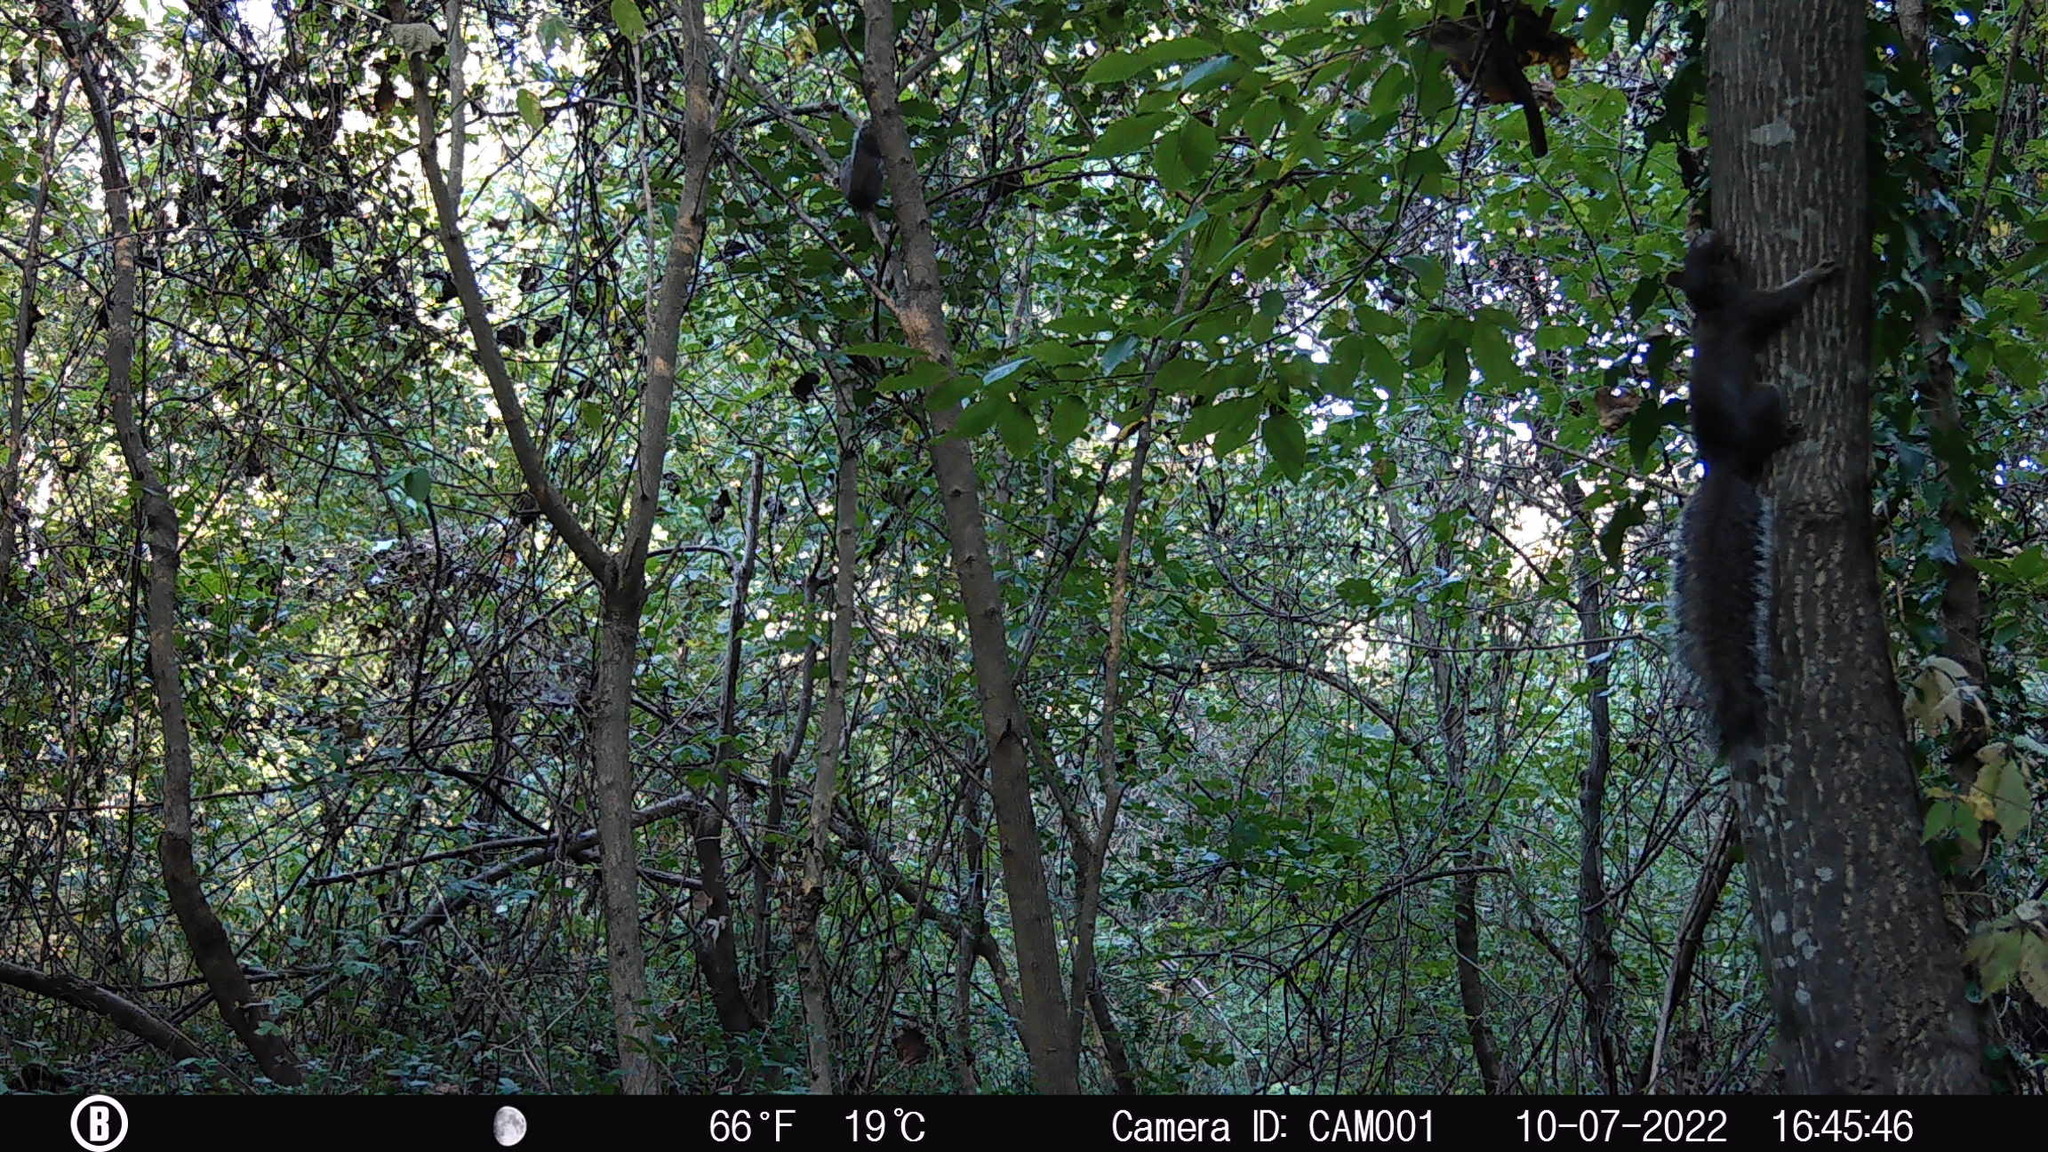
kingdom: Animalia
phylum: Chordata
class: Mammalia
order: Rodentia
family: Sciuridae
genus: Sciurus
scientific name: Sciurus carolinensis
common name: Eastern gray squirrel
